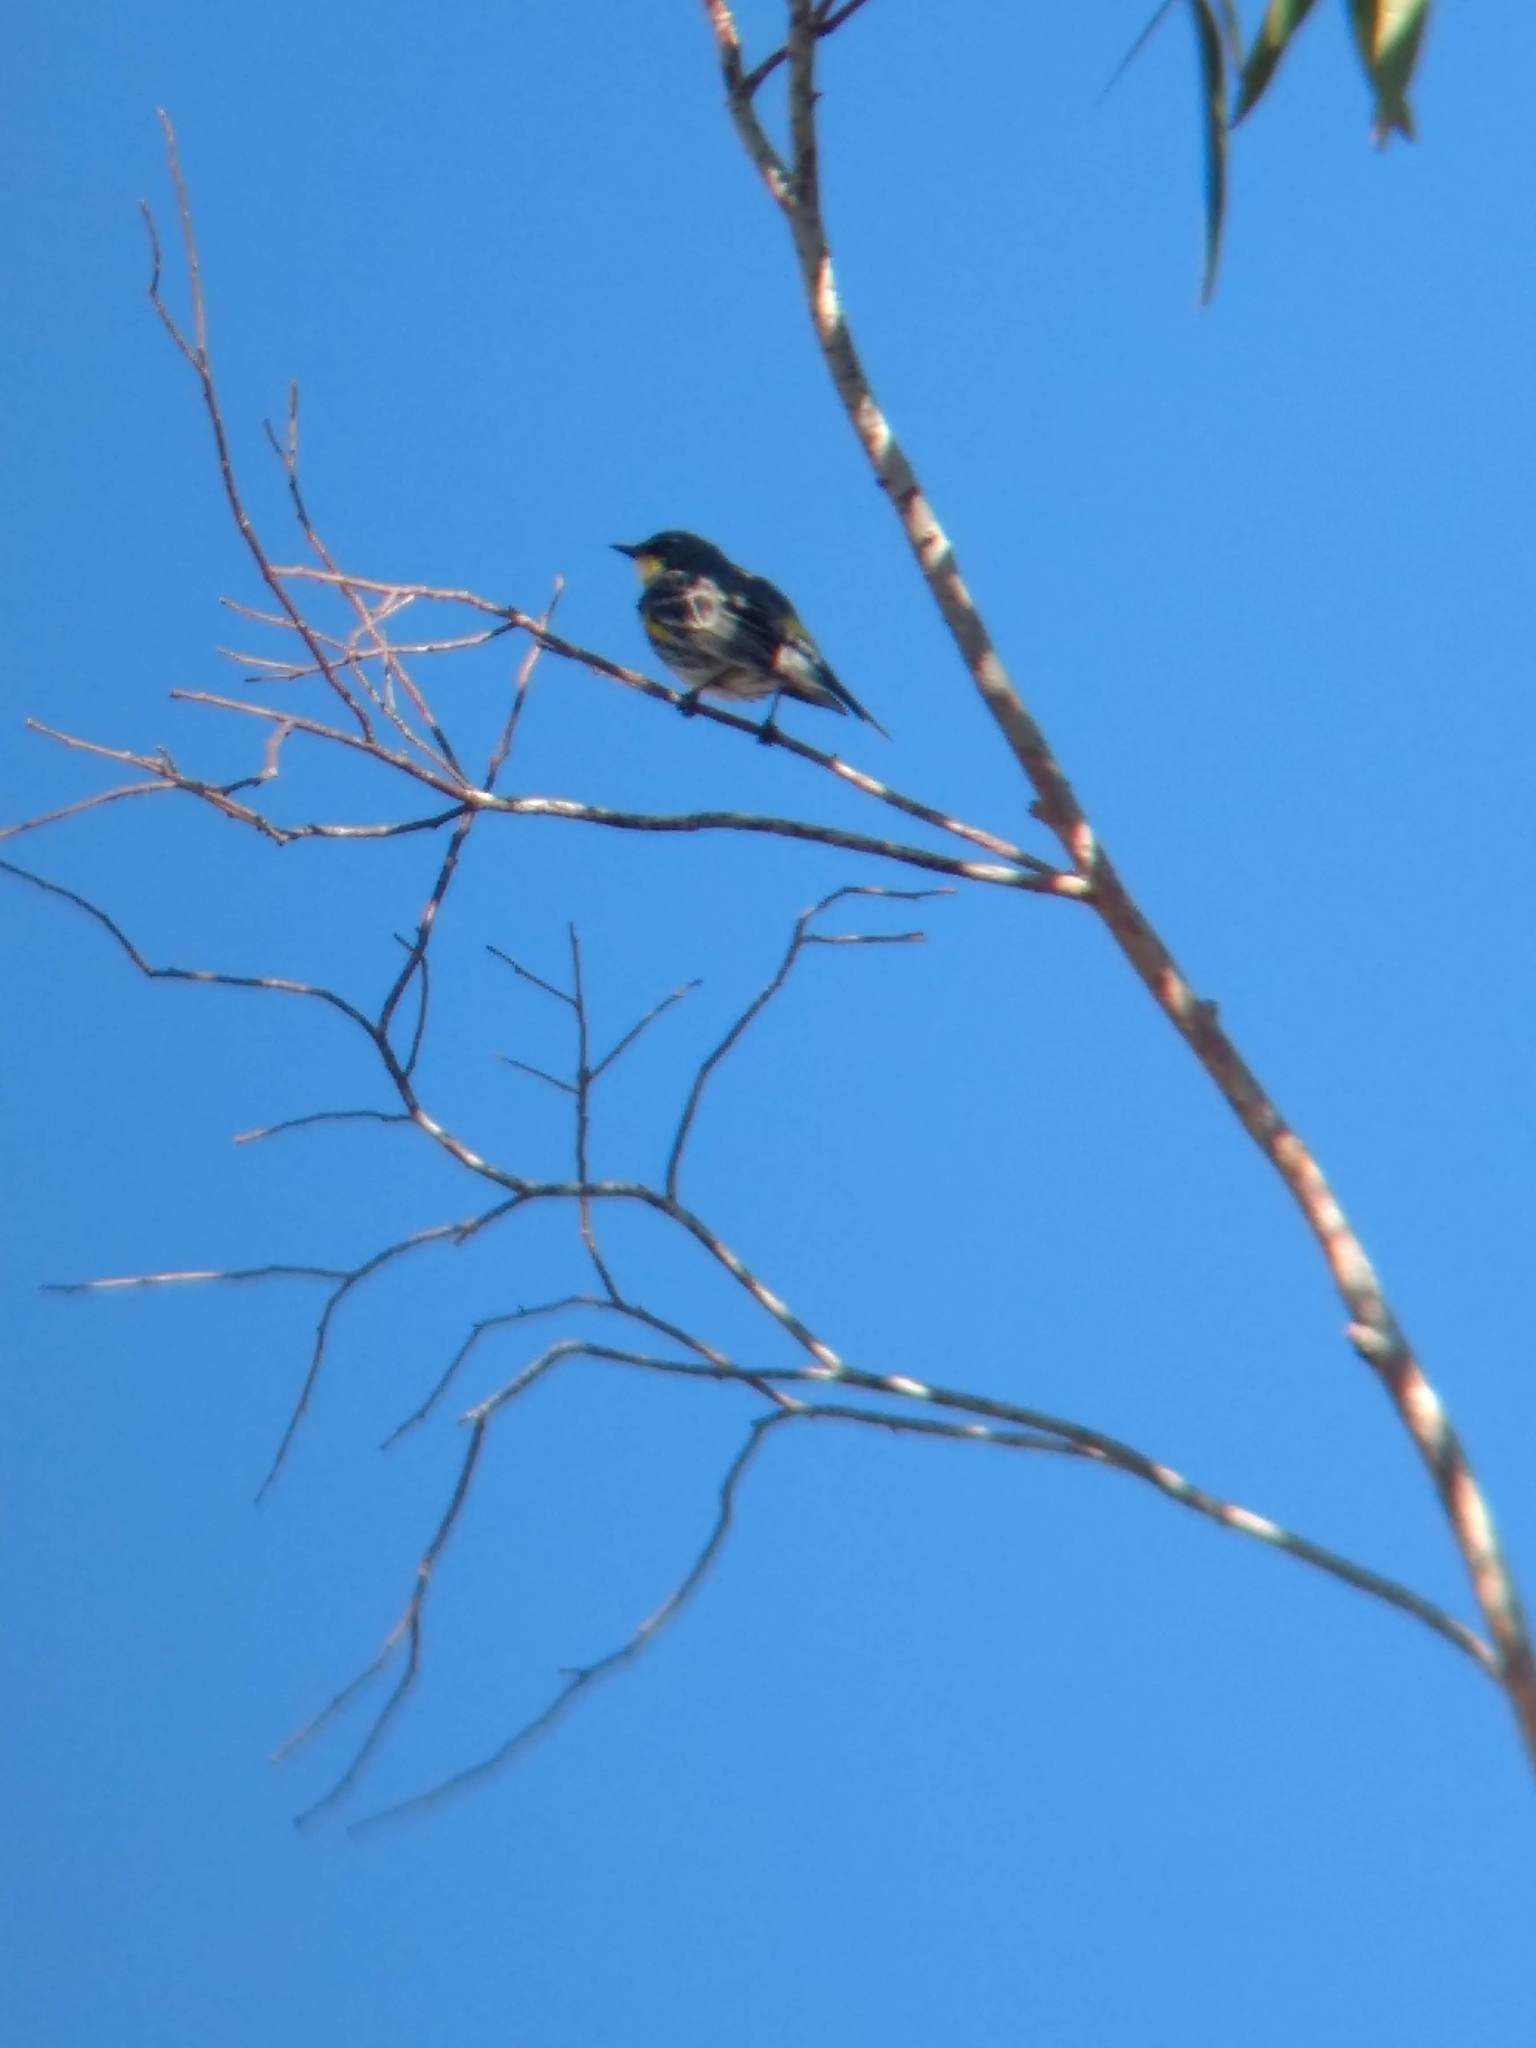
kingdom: Animalia
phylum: Chordata
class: Aves
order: Passeriformes
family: Parulidae
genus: Setophaga
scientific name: Setophaga coronata
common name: Myrtle warbler
